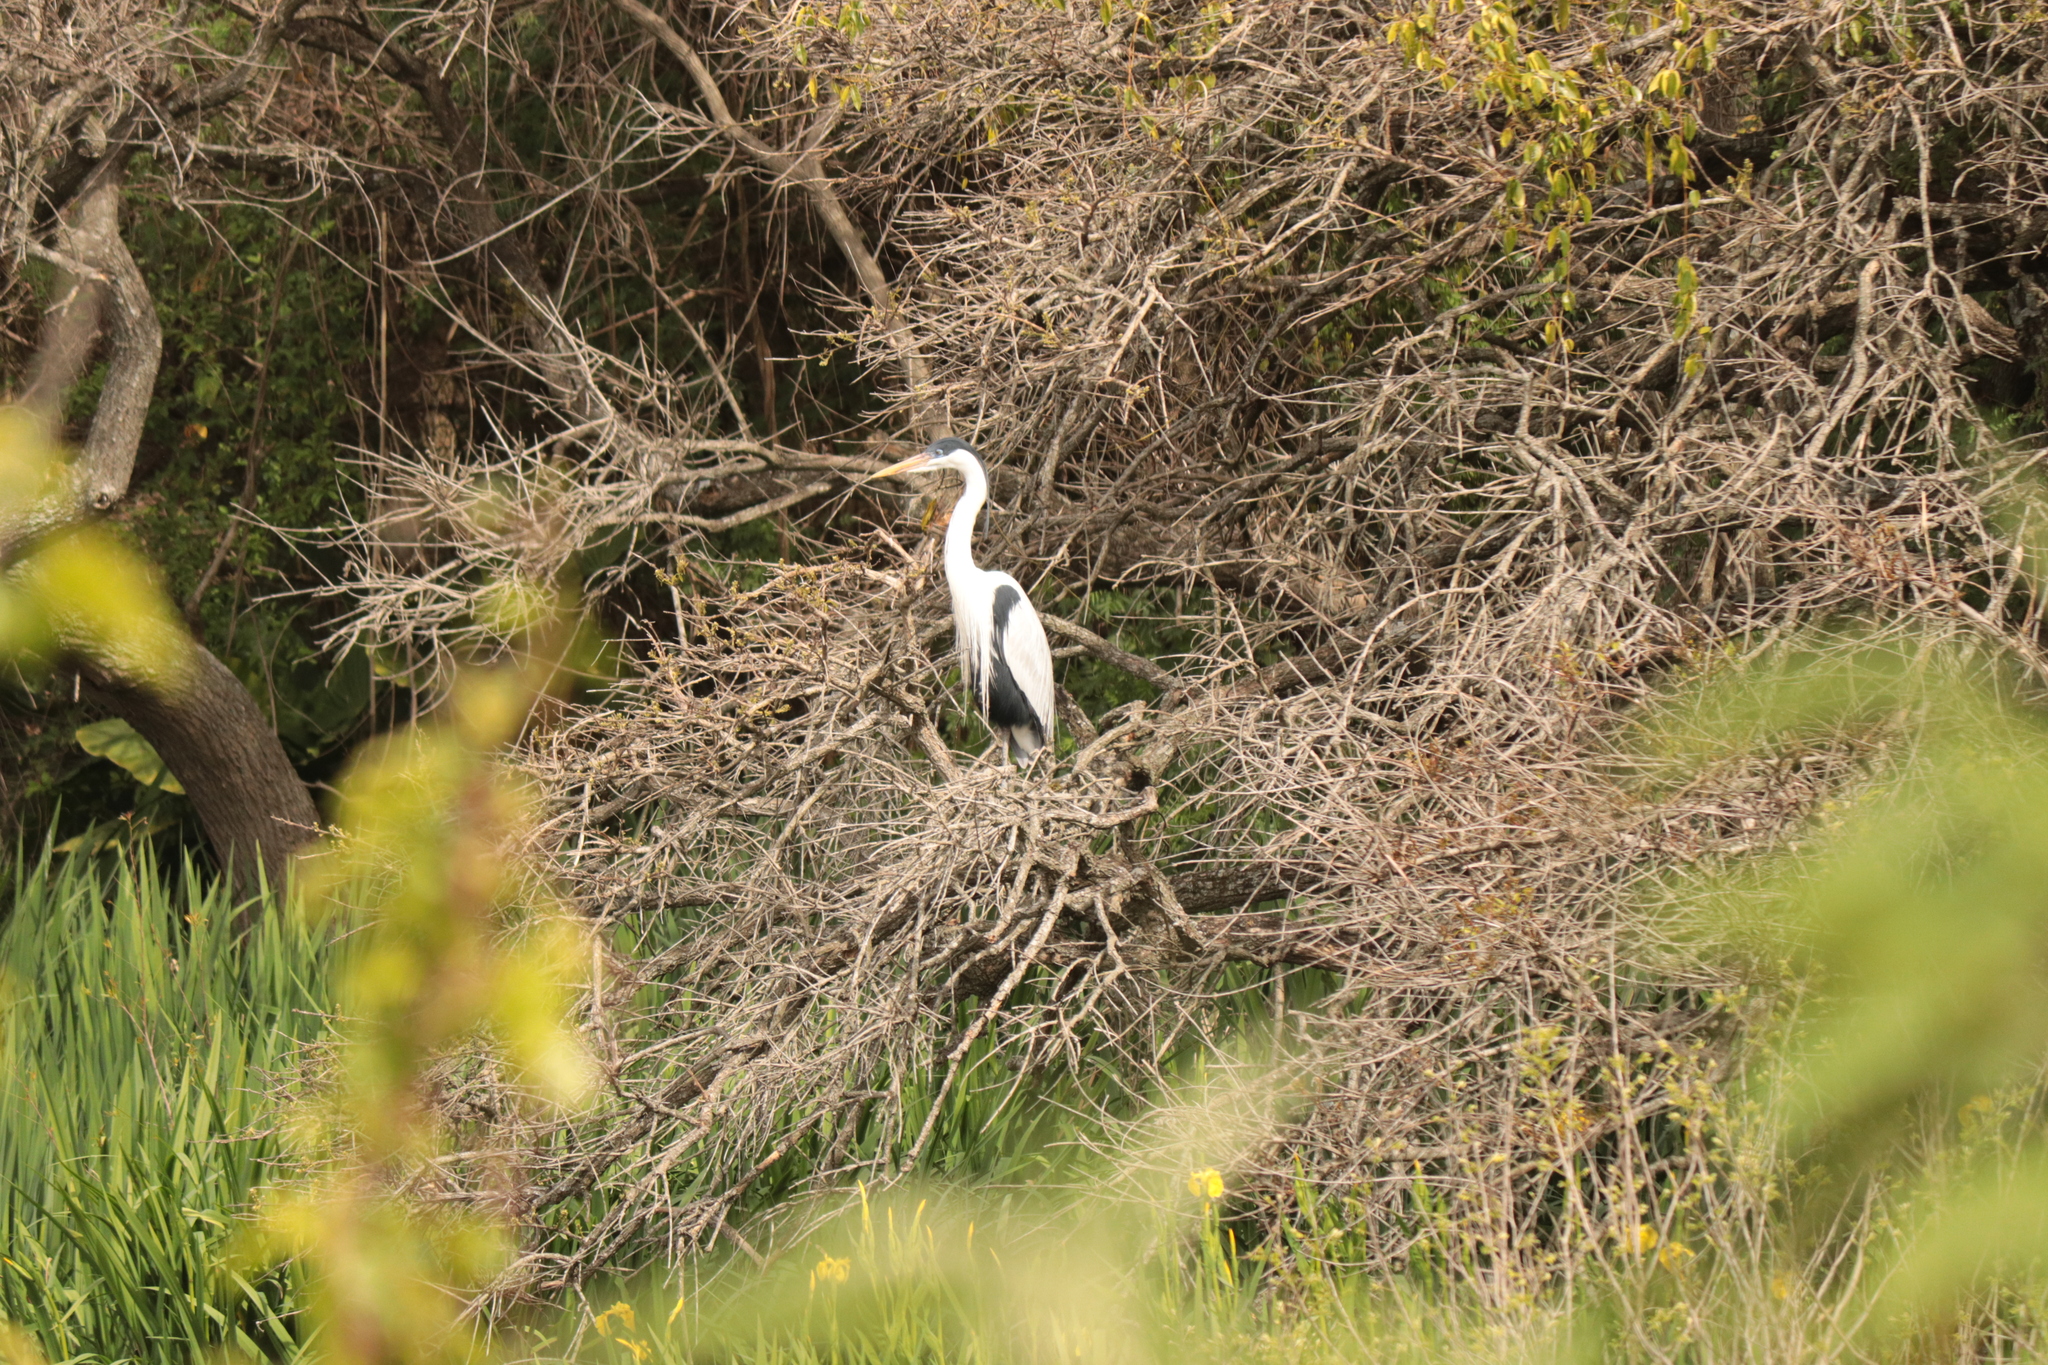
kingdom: Animalia
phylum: Chordata
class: Aves
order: Pelecaniformes
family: Ardeidae
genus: Ardea
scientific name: Ardea cocoi
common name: Cocoi heron
